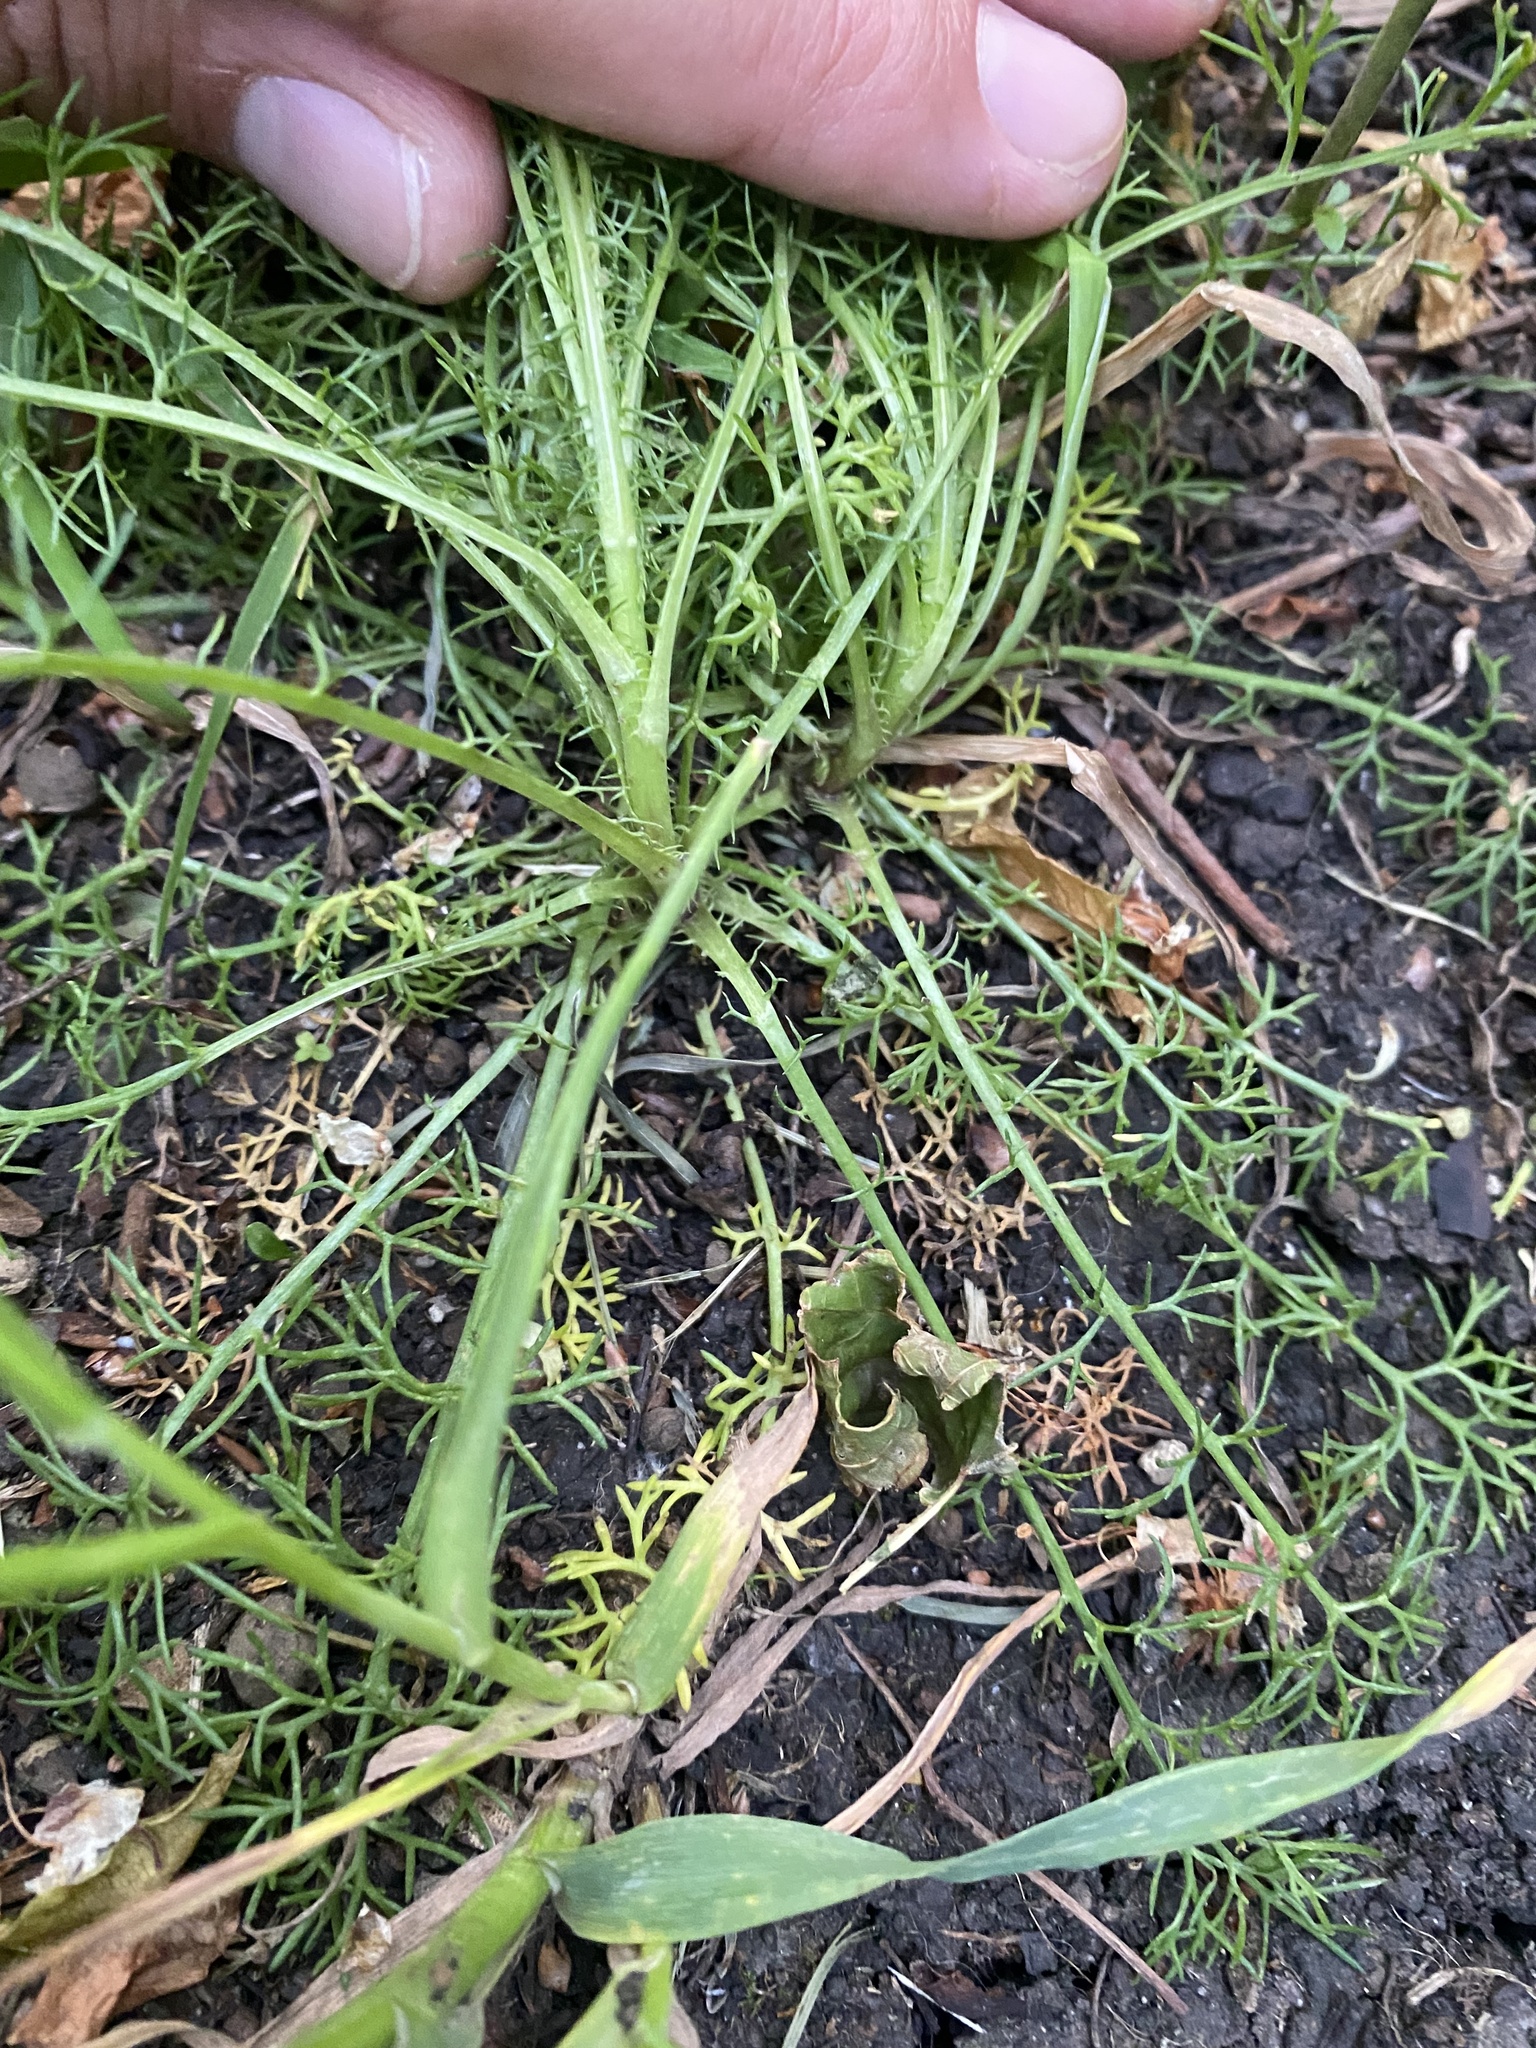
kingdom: Plantae
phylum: Tracheophyta
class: Magnoliopsida
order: Asterales
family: Asteraceae
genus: Tripleurospermum
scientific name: Tripleurospermum inodorum
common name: Scentless mayweed
